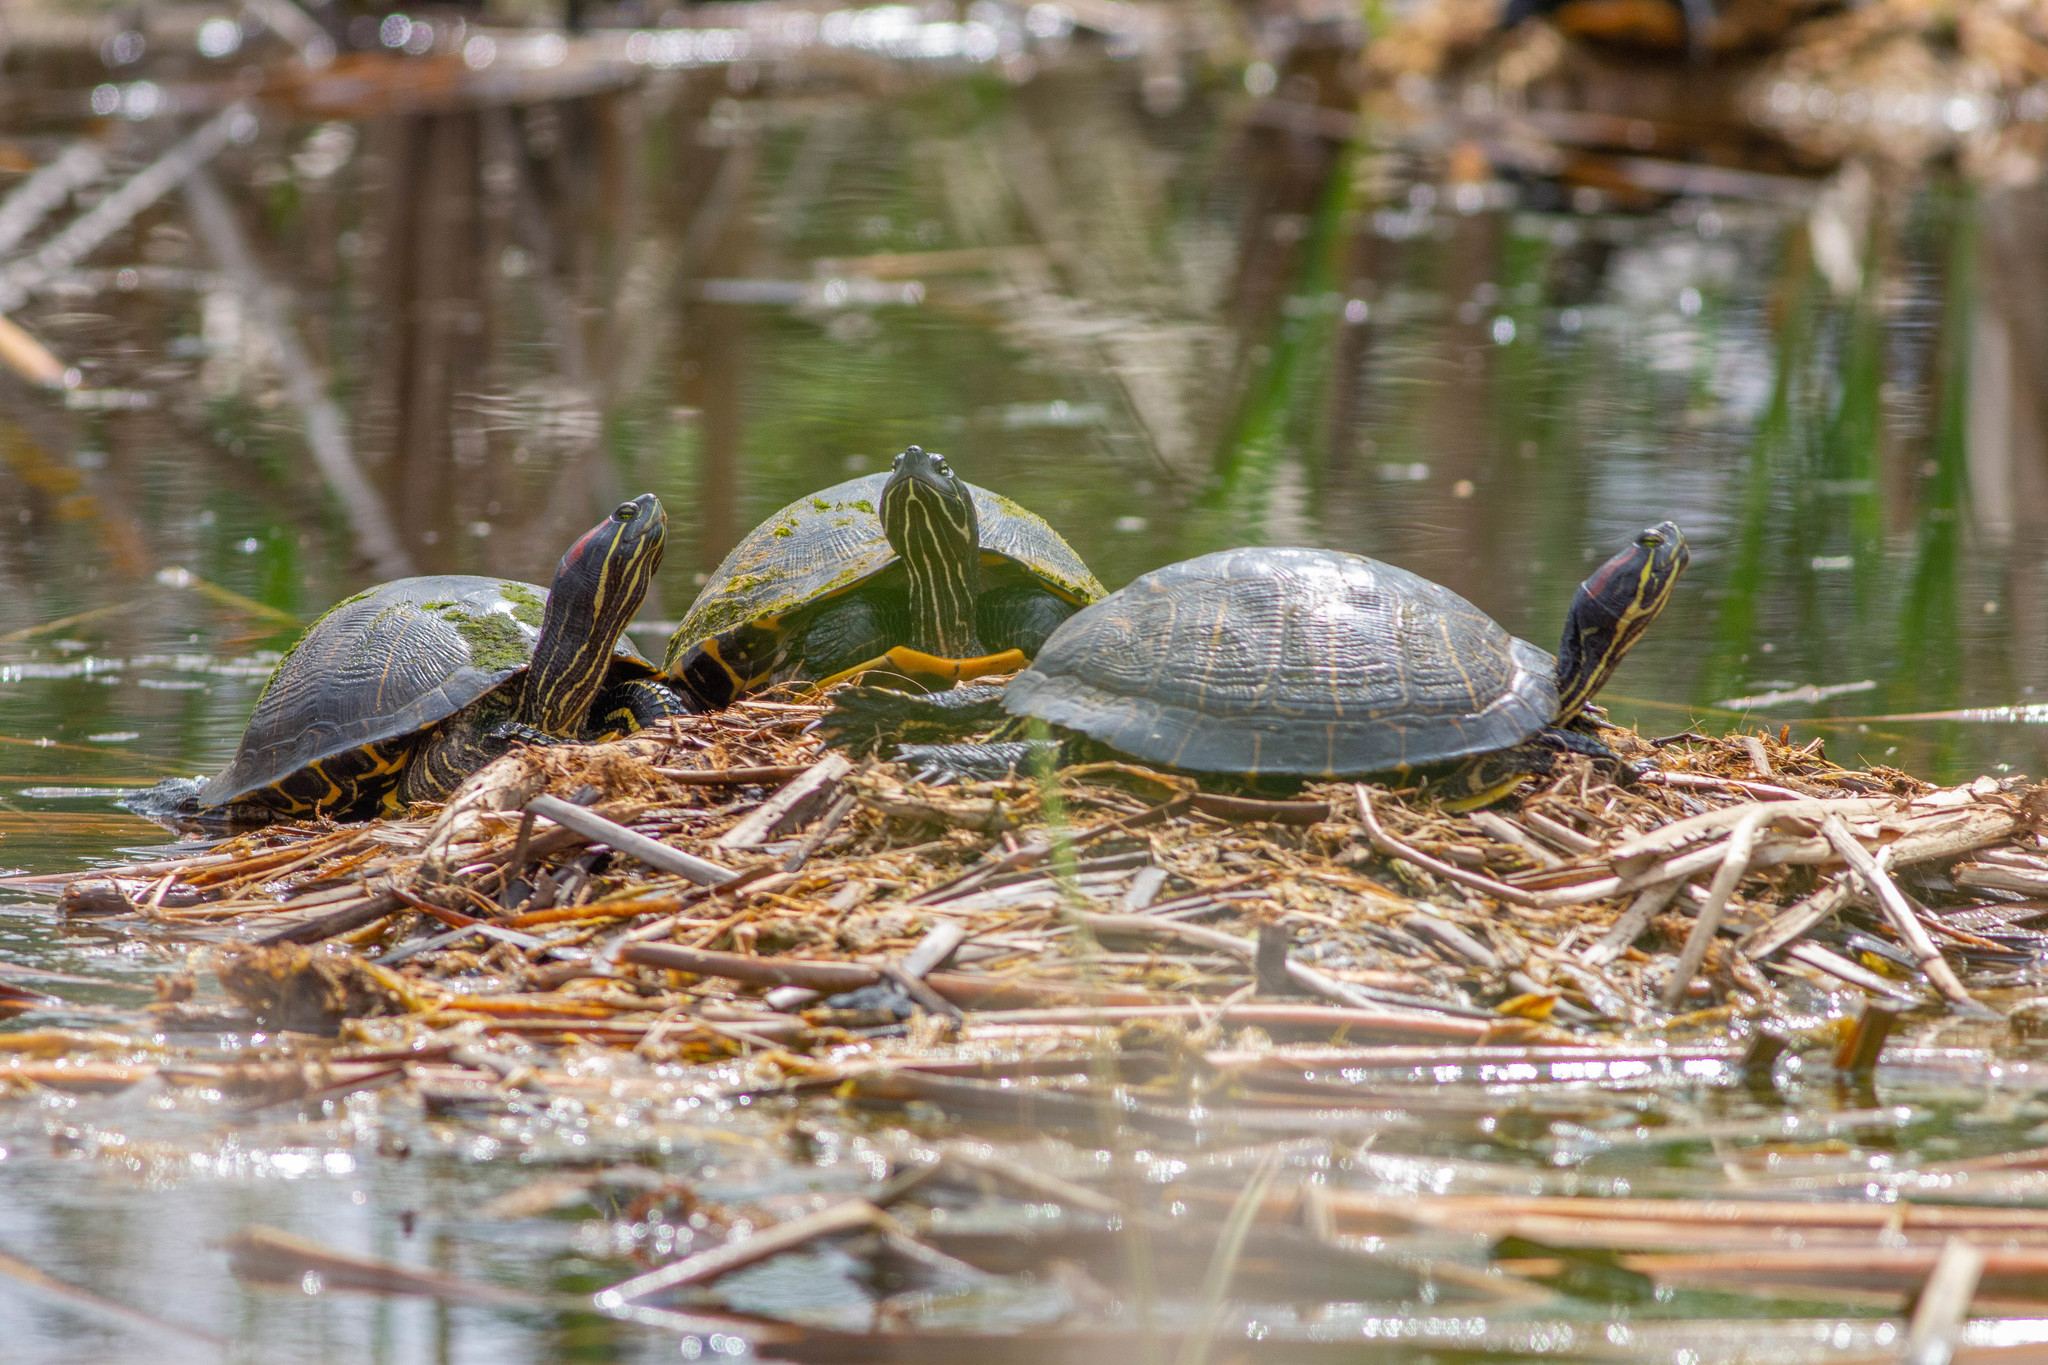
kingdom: Animalia
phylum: Chordata
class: Testudines
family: Emydidae
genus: Trachemys
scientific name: Trachemys scripta
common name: Slider
